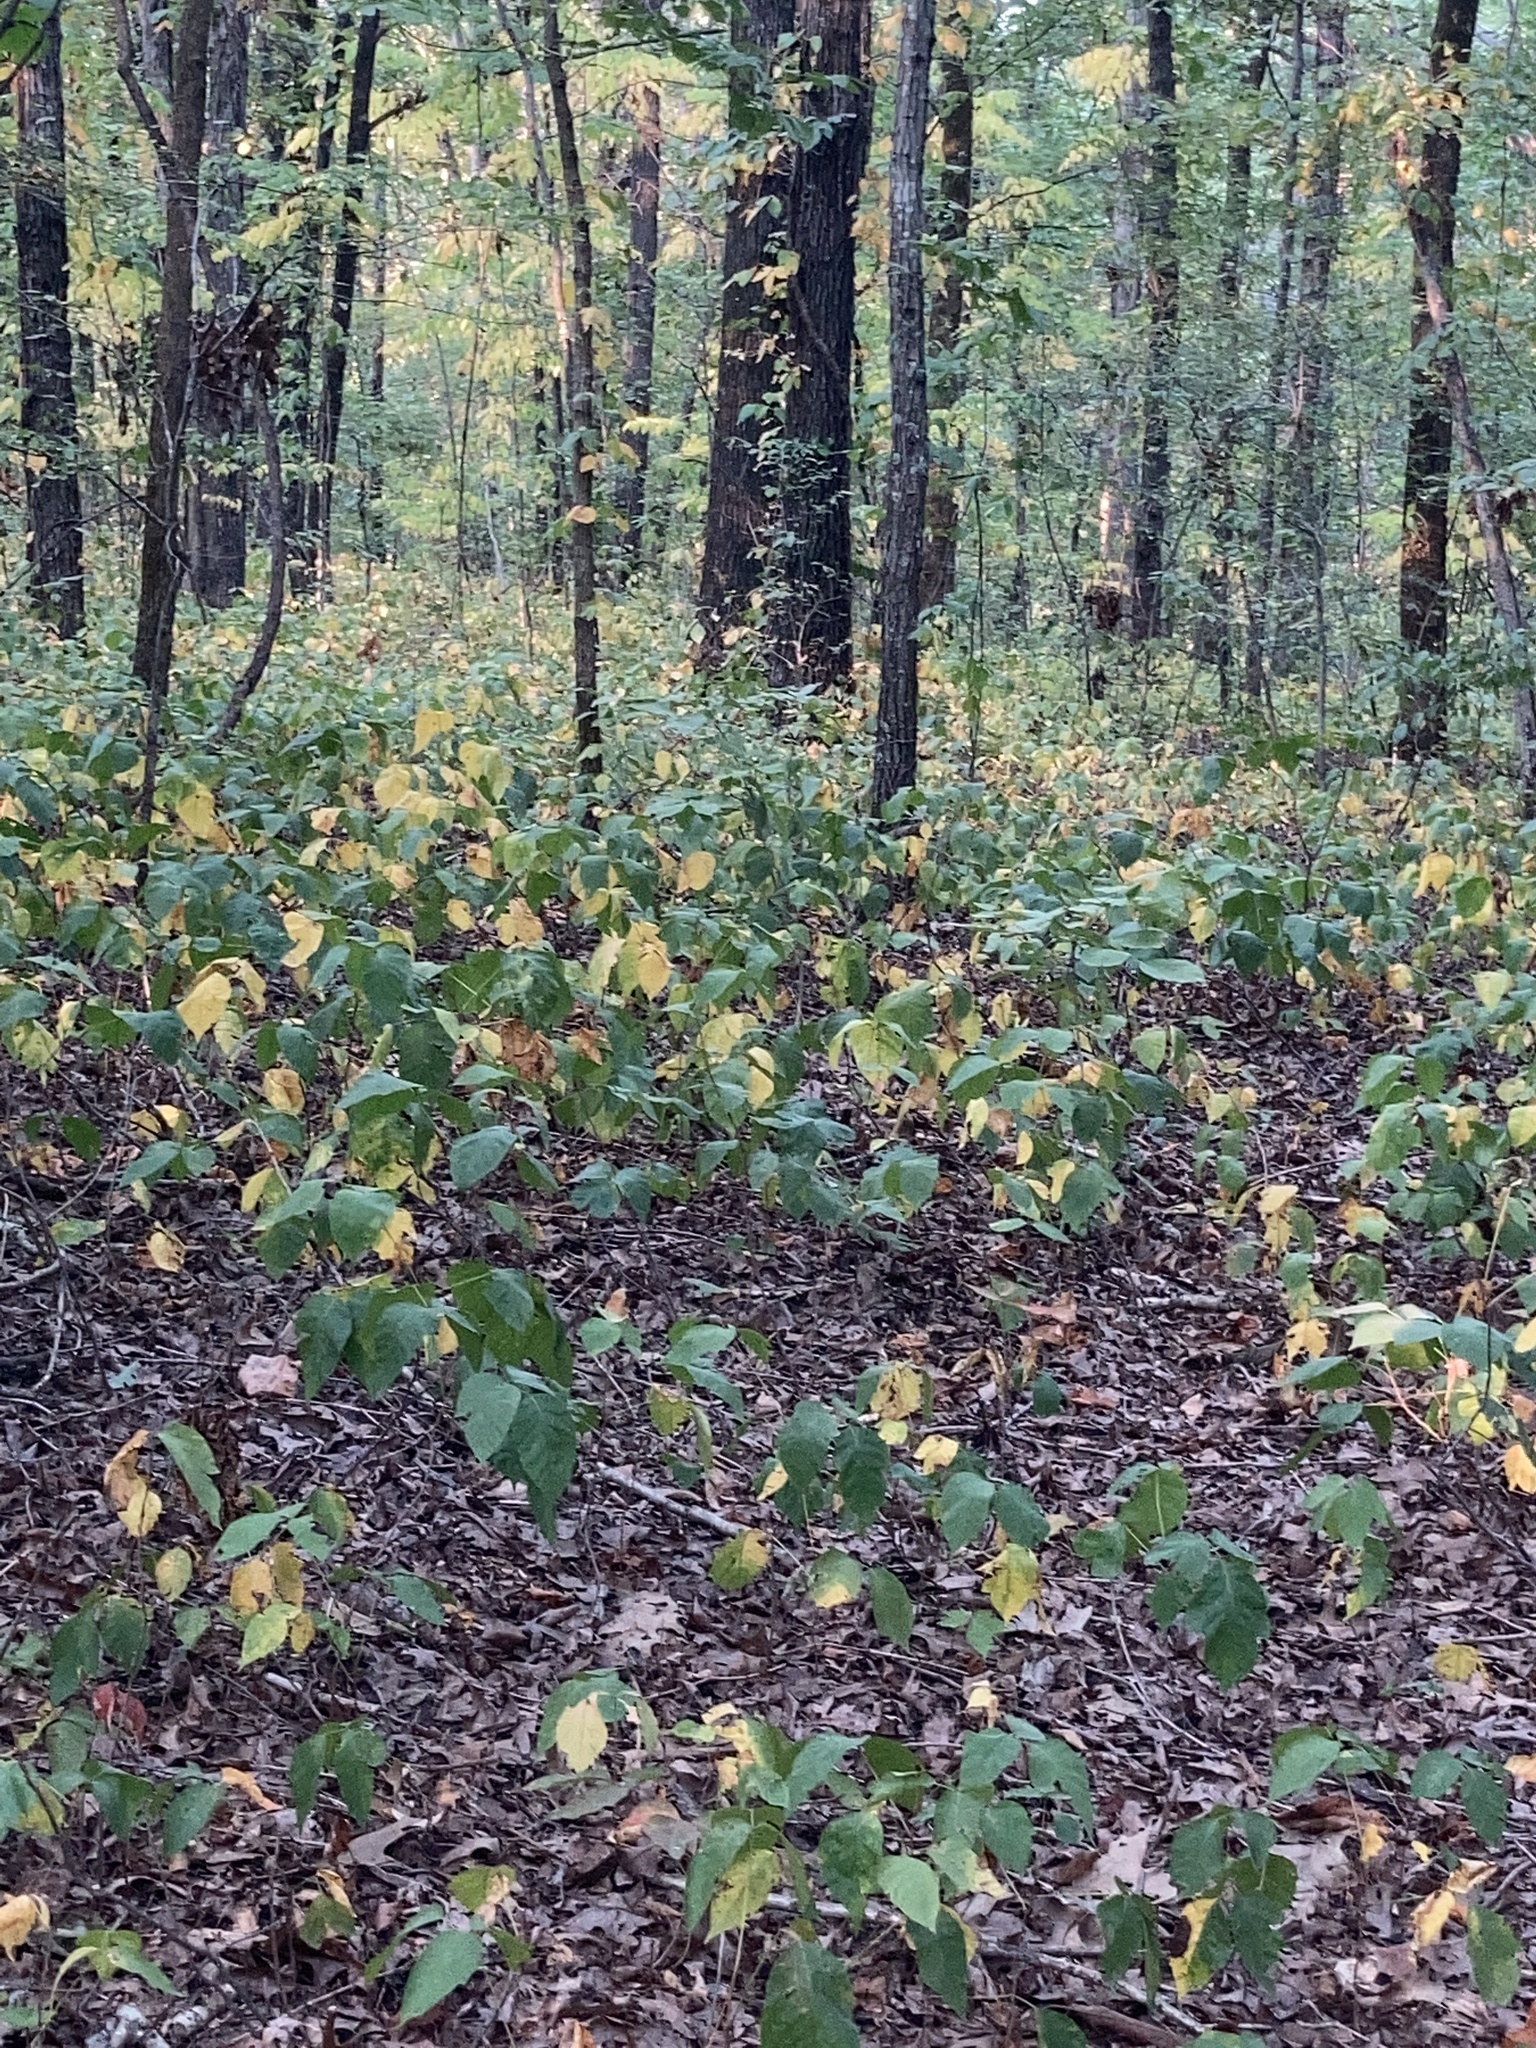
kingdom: Plantae
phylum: Tracheophyta
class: Magnoliopsida
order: Sapindales
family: Anacardiaceae
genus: Toxicodendron
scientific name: Toxicodendron radicans
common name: Poison ivy
